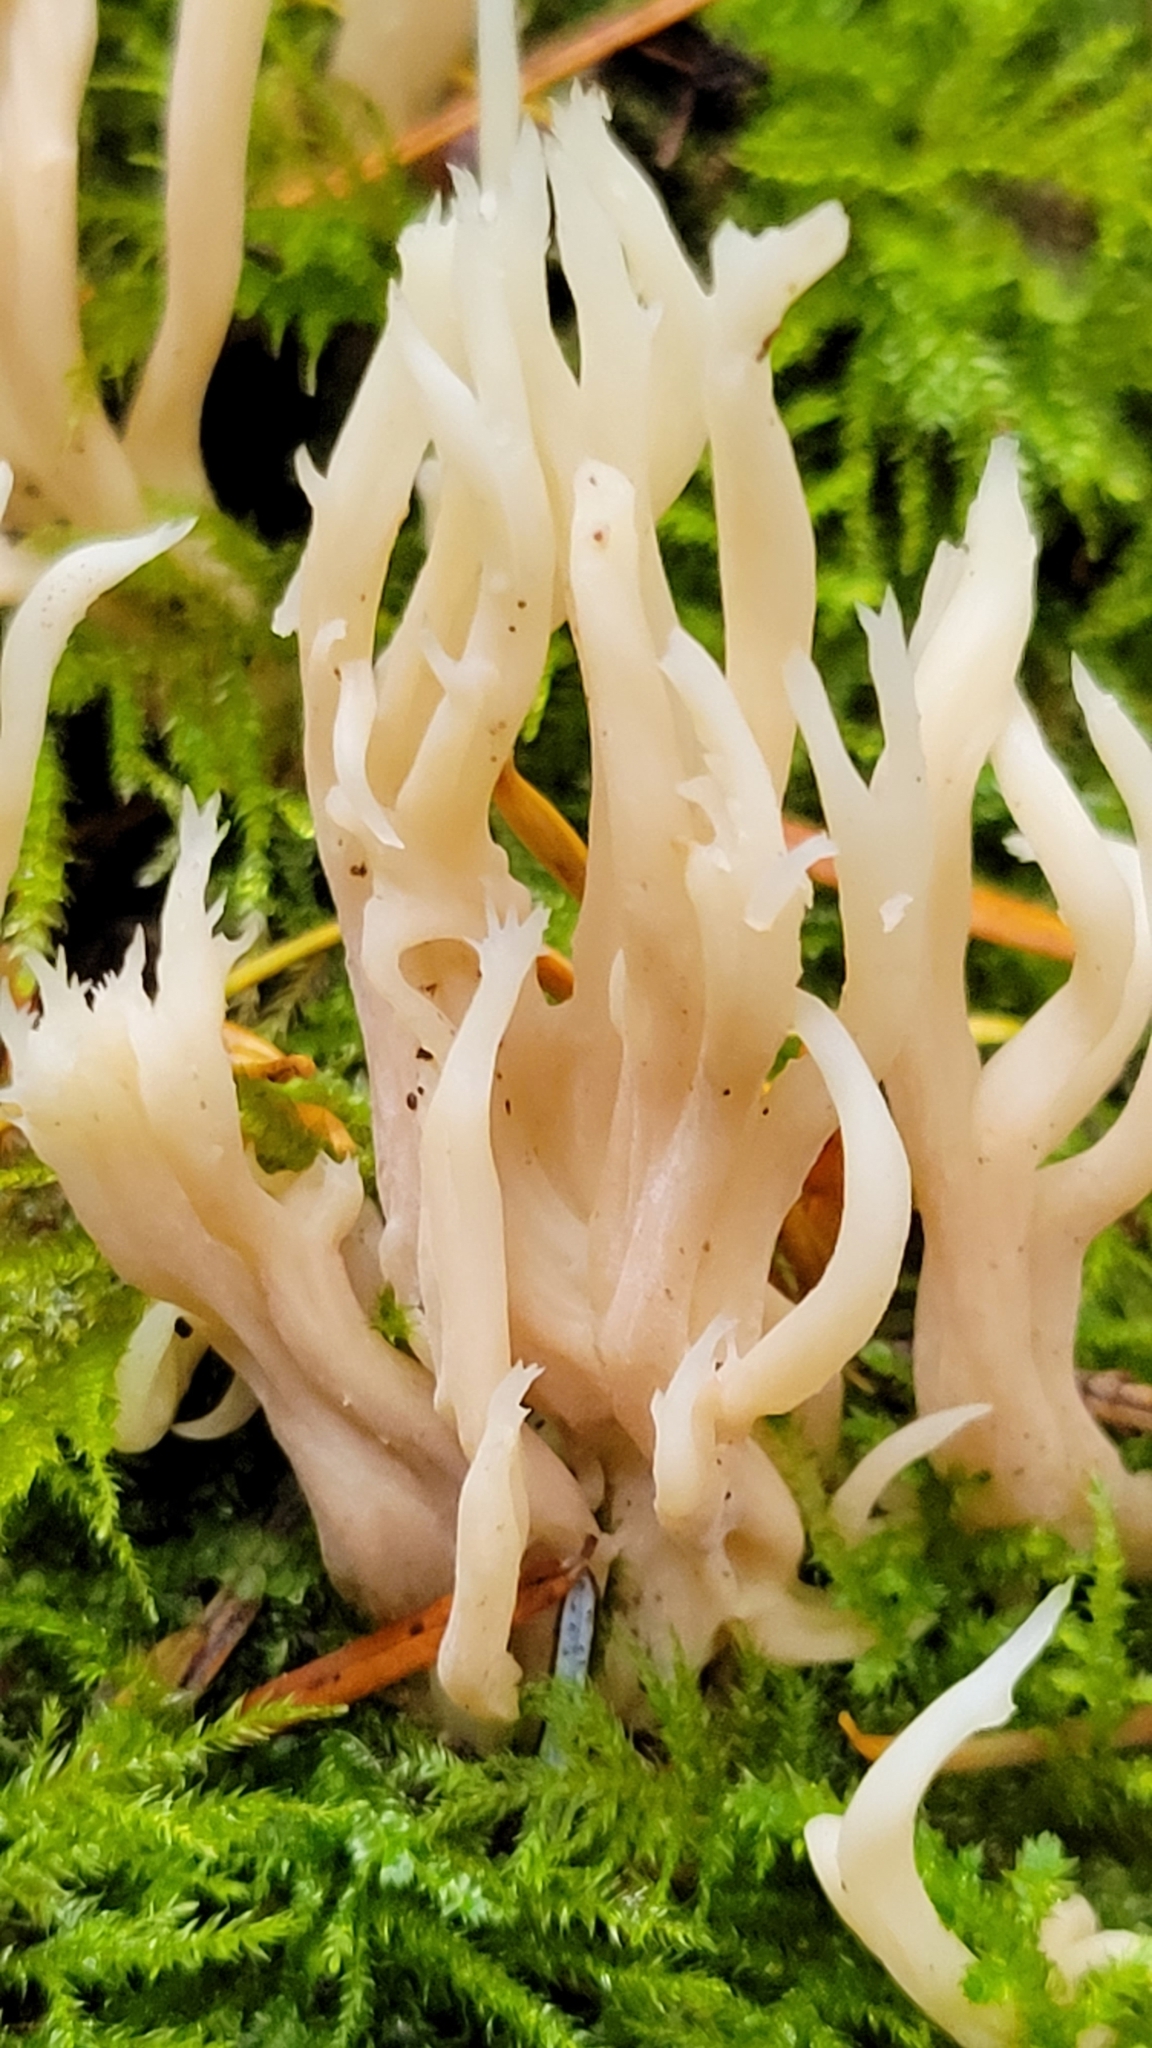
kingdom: Fungi
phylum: Basidiomycota
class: Agaricomycetes
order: Cantharellales
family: Hydnaceae
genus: Clavulina
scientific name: Clavulina coralloides
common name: Crested coral
